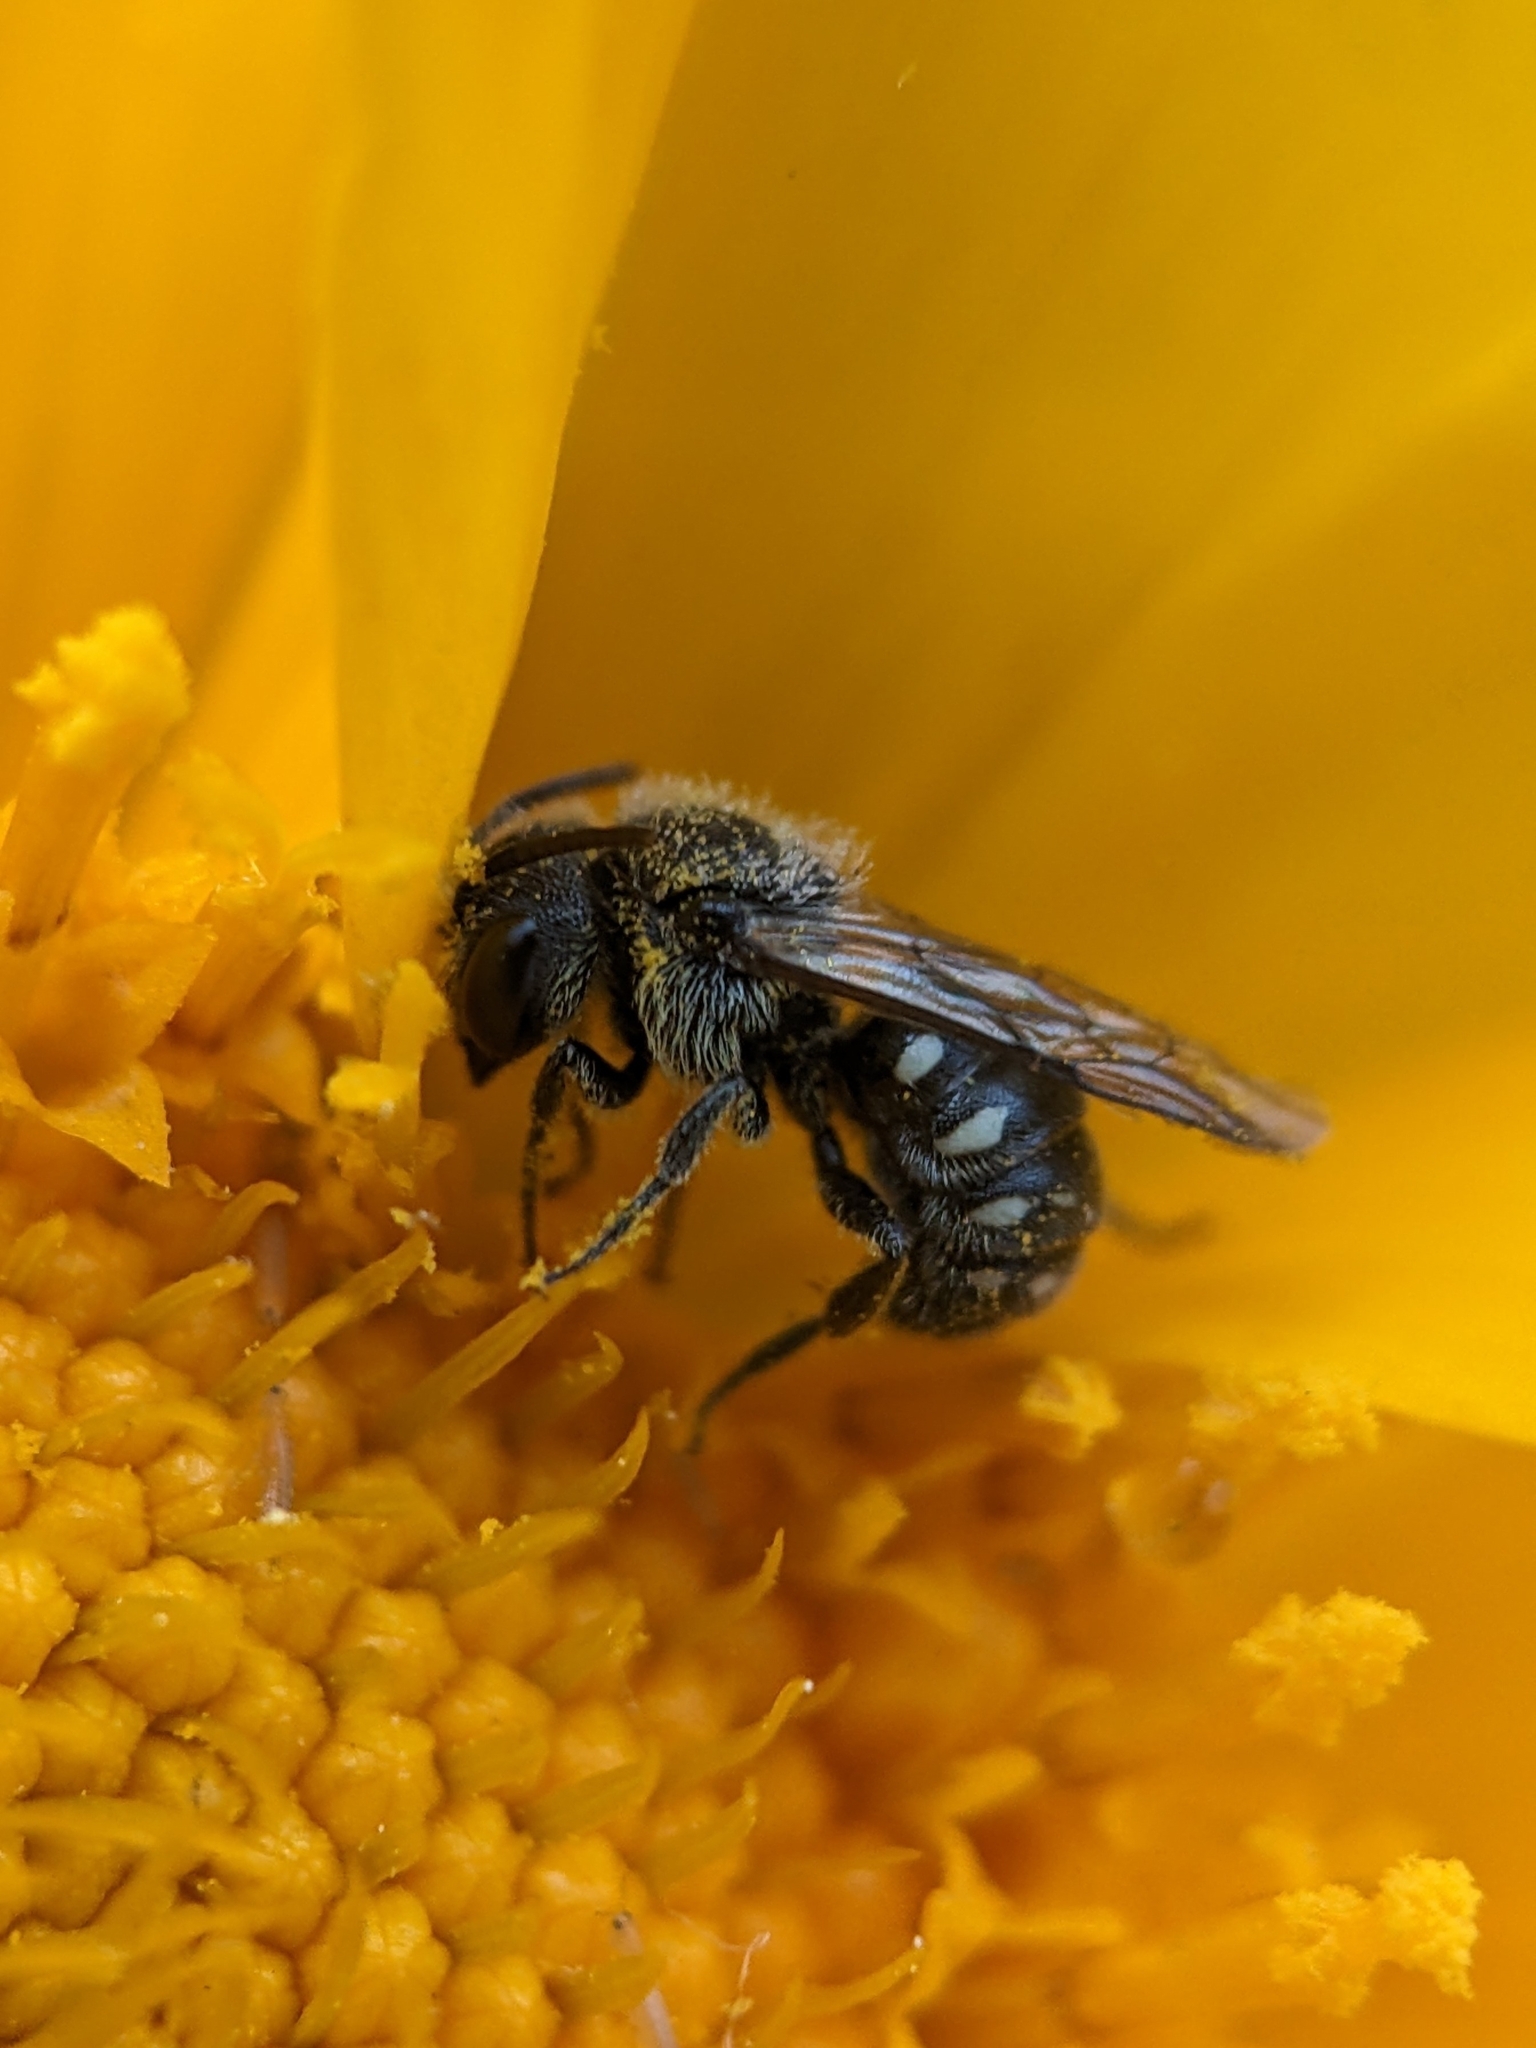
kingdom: Animalia
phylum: Arthropoda
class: Insecta
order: Hymenoptera
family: Megachilidae
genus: Stelis
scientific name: Stelis lateralis
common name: Spot-sided dark bee
